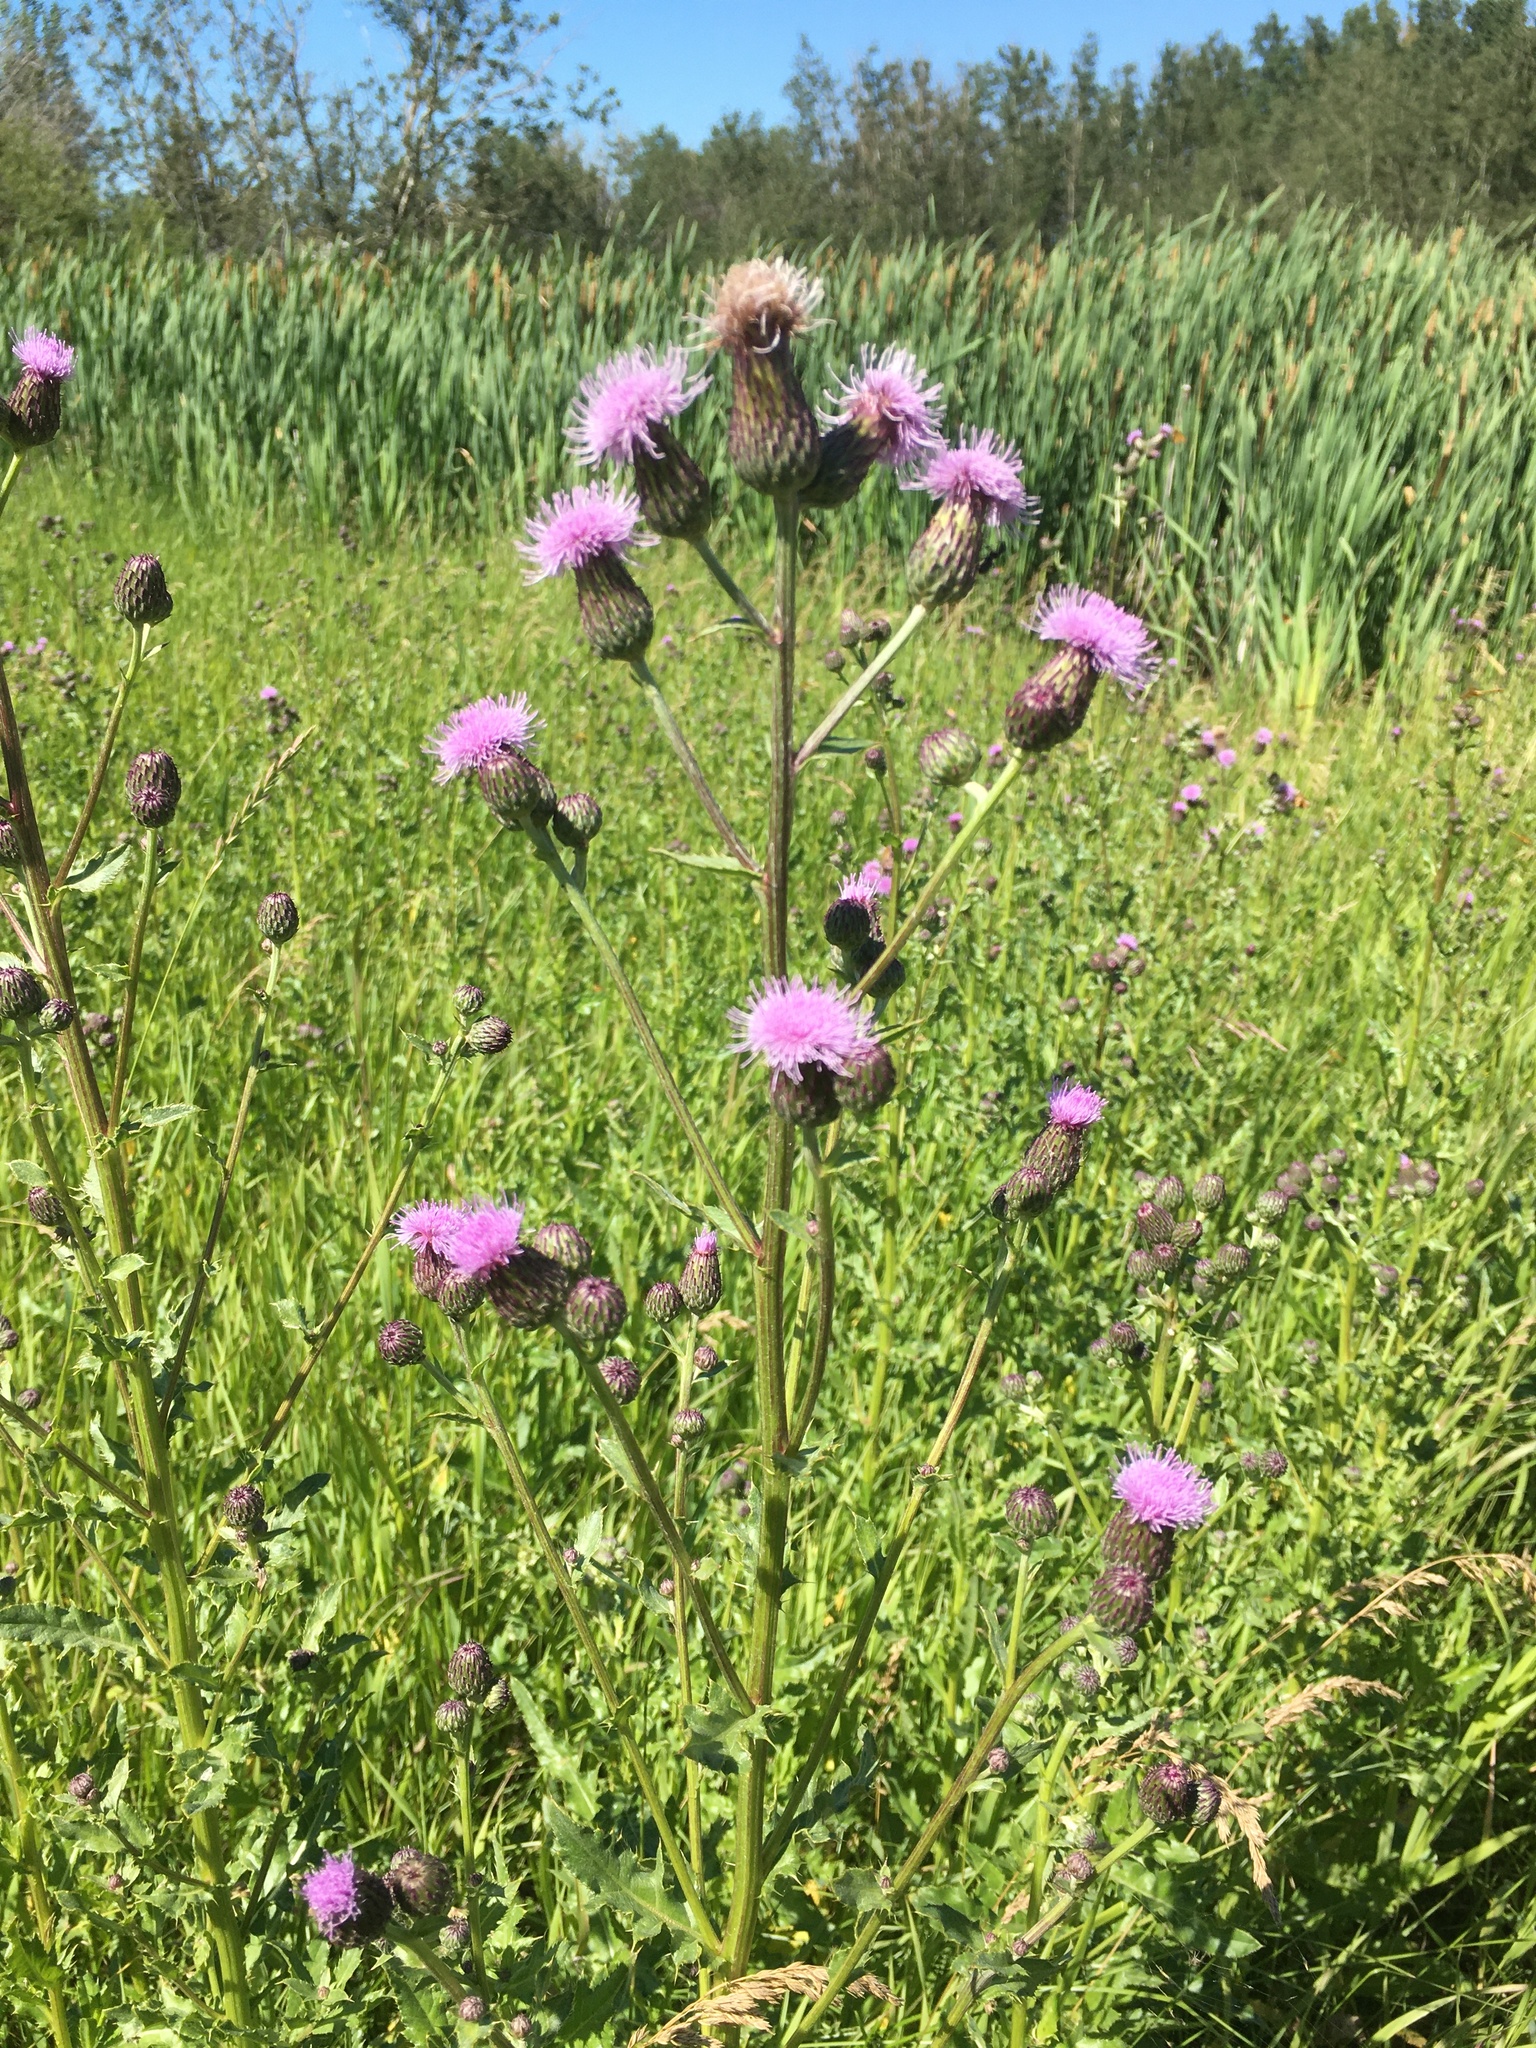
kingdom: Plantae
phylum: Tracheophyta
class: Magnoliopsida
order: Asterales
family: Asteraceae
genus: Cirsium
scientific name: Cirsium arvense
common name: Creeping thistle
